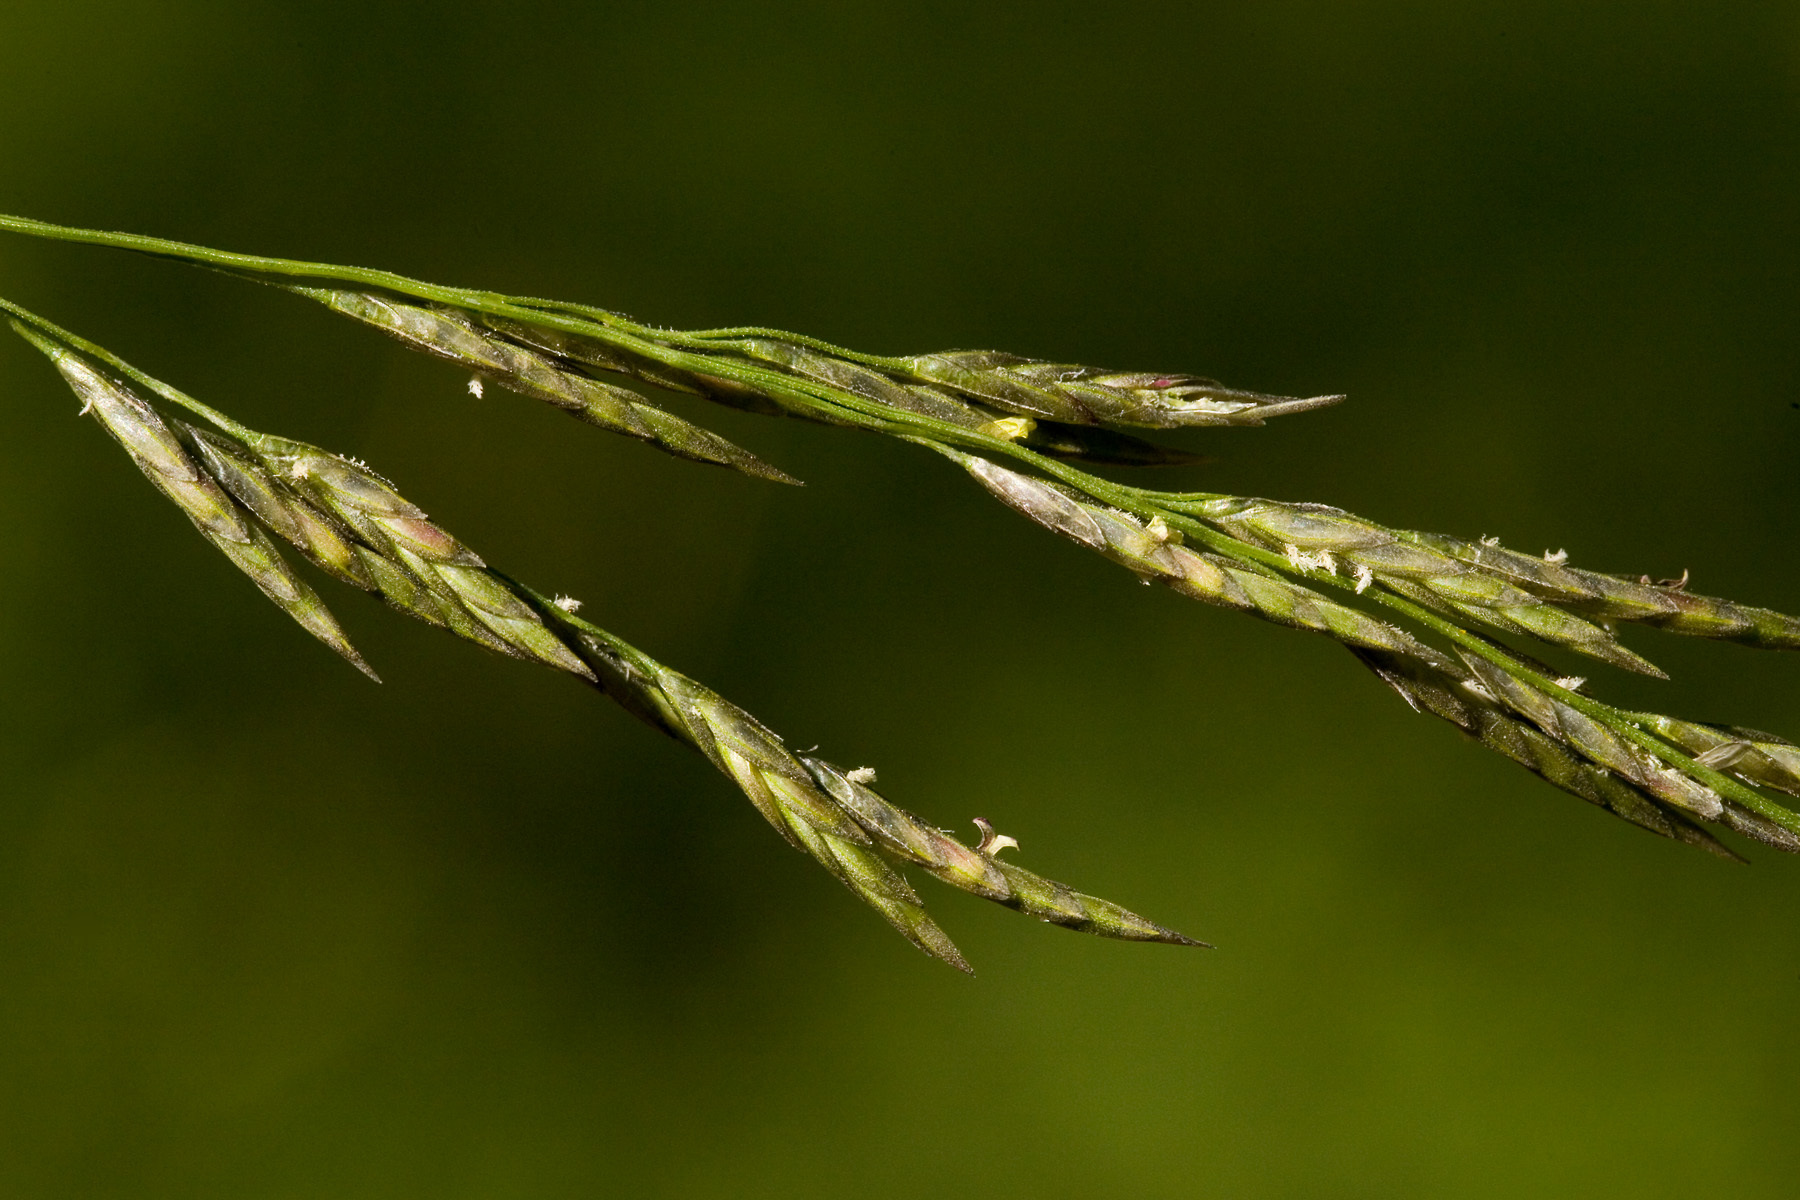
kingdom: Plantae
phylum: Tracheophyta
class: Liliopsida
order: Poales
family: Poaceae
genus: Eragrostis
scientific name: Eragrostis curvula
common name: African love-grass
